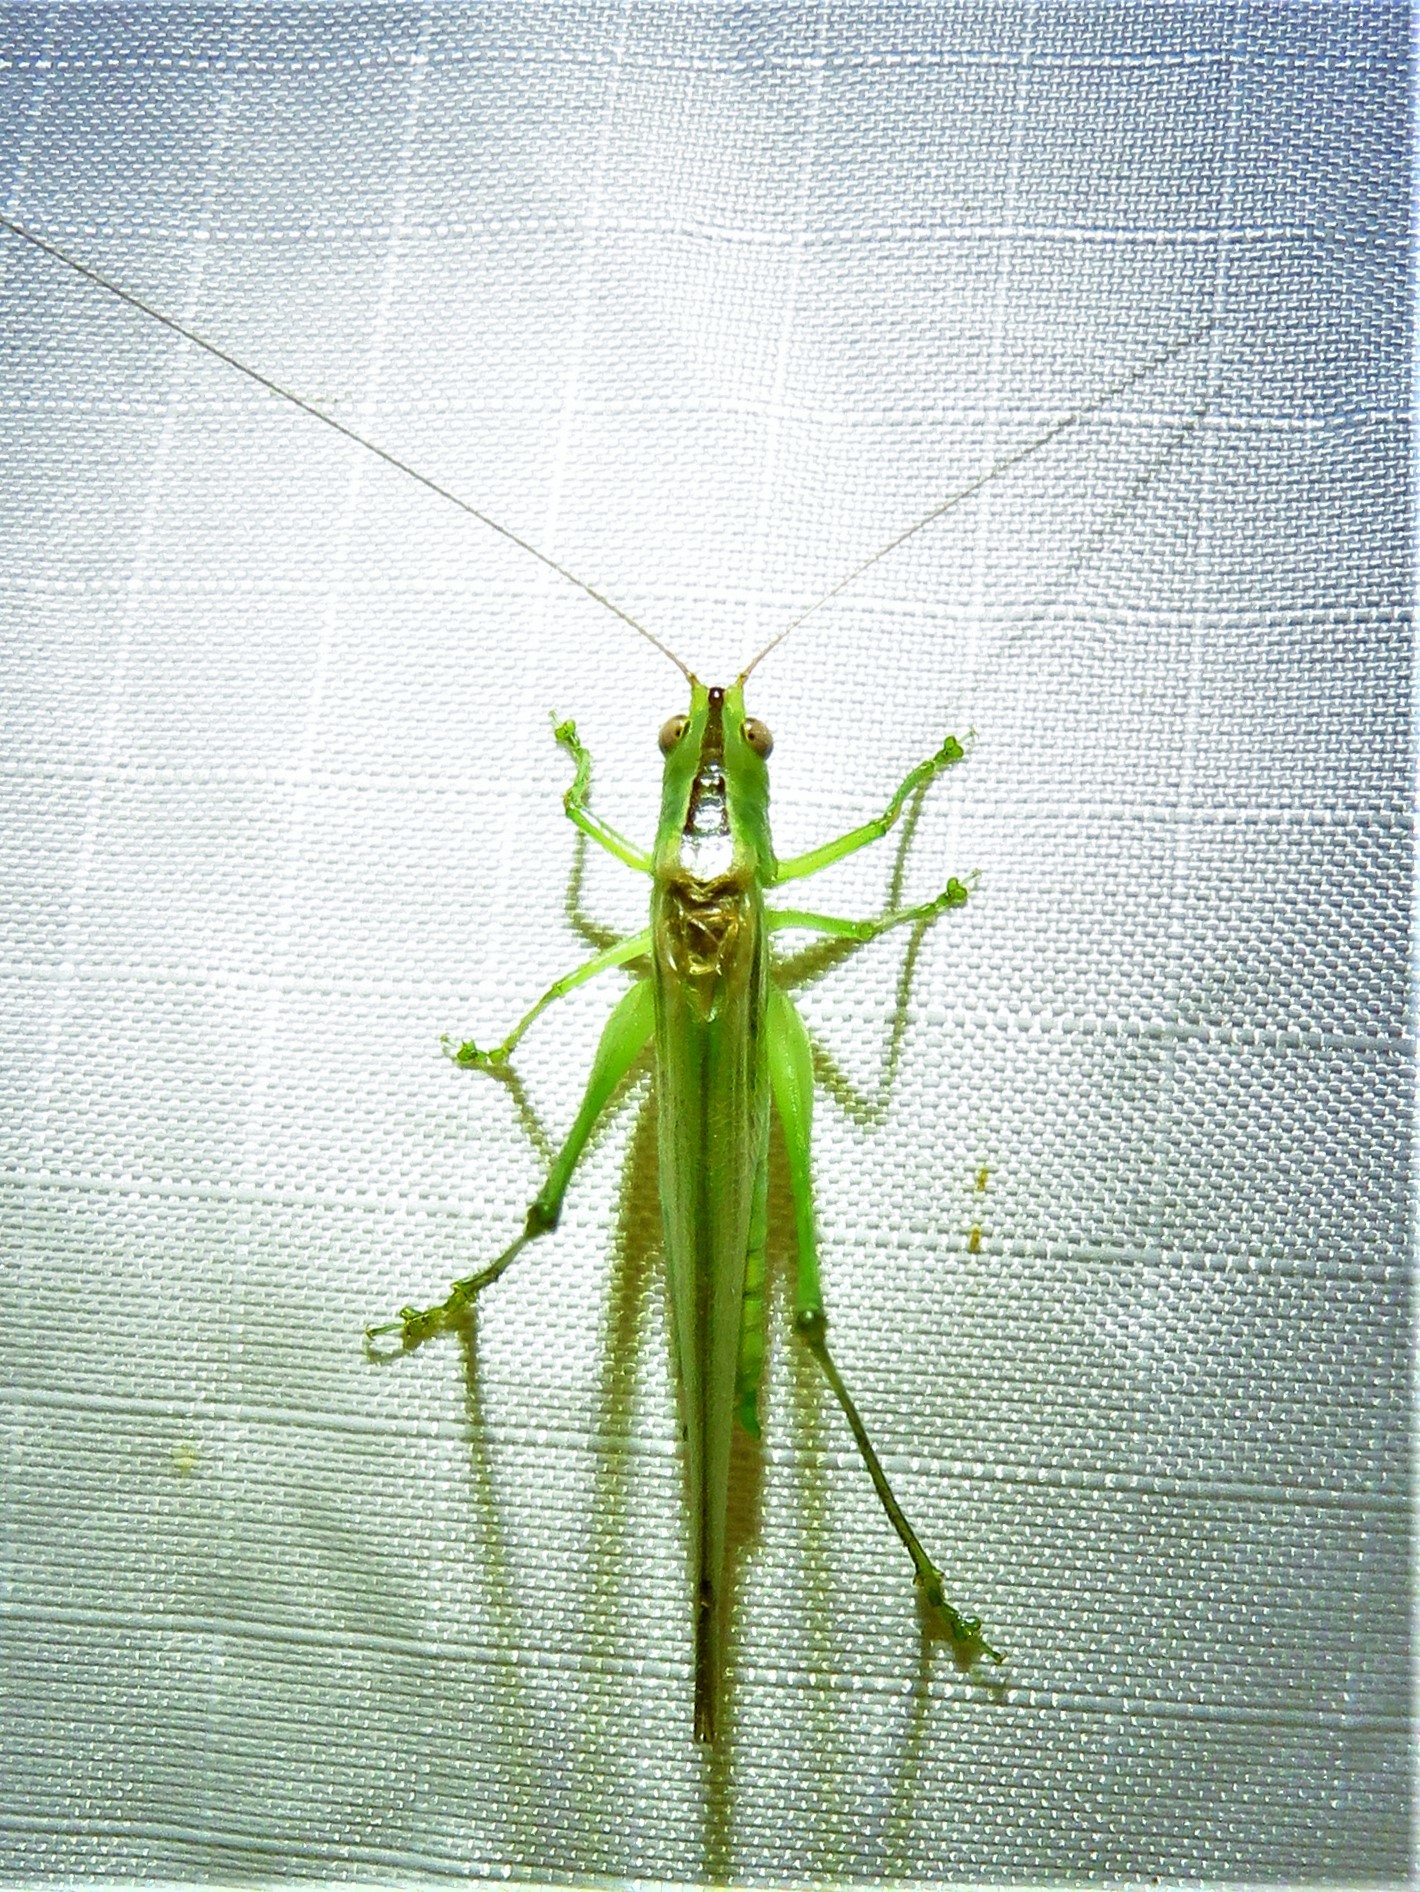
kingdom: Animalia
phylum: Arthropoda
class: Insecta
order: Orthoptera
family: Tettigoniidae
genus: Conocephalus
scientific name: Conocephalus fasciatus
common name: Slender meadow katydid
